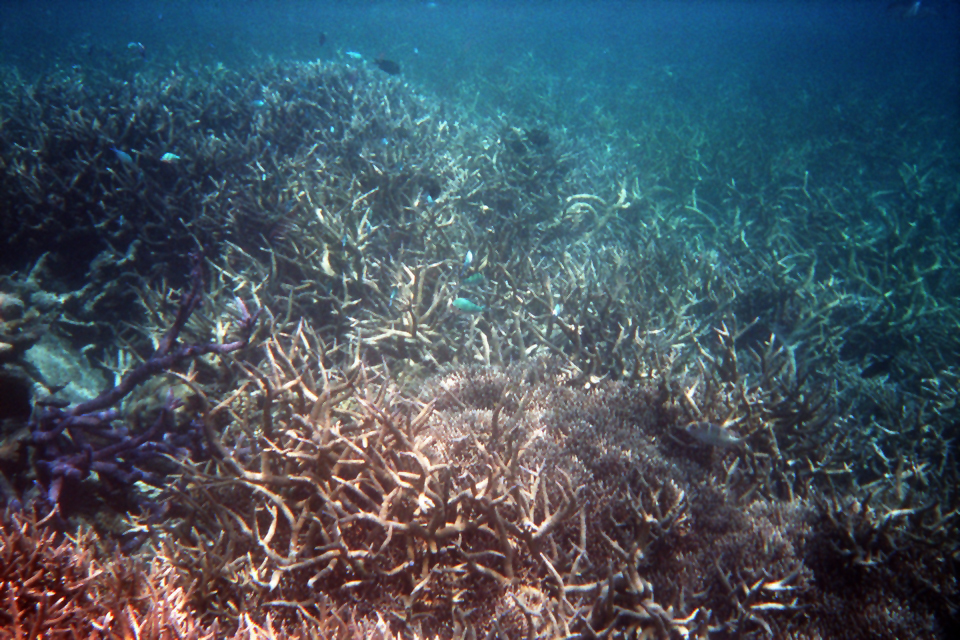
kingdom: Animalia
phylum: Cnidaria
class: Anthozoa
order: Scleractinia
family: Acroporidae
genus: Acropora
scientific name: Acropora muricata
